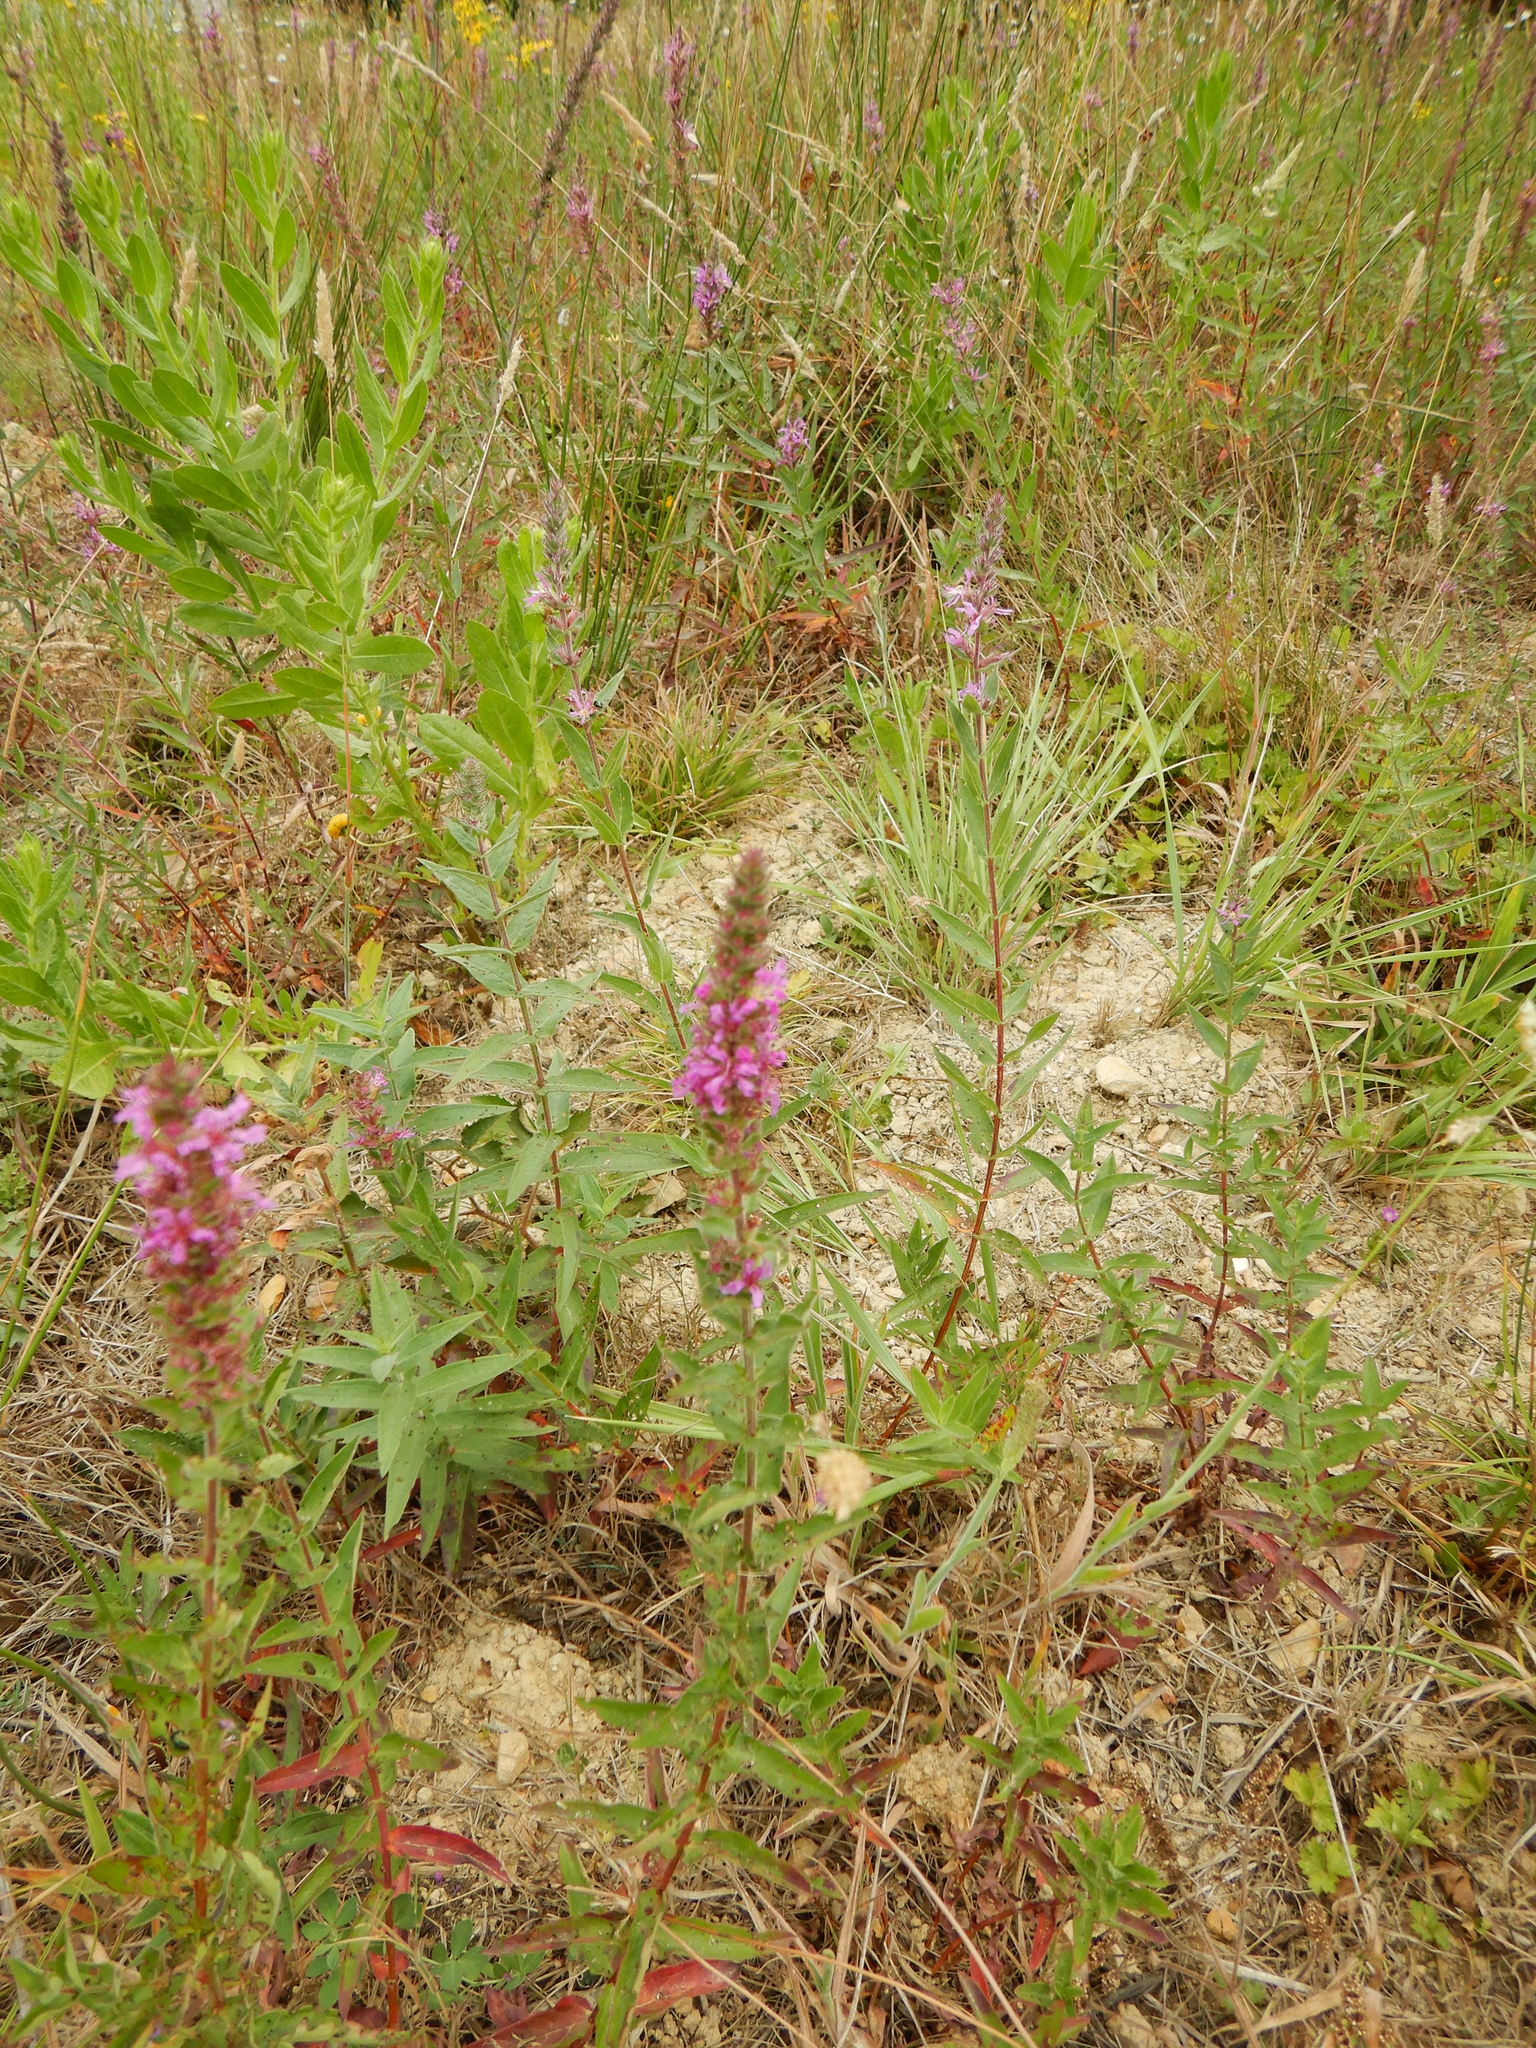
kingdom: Plantae
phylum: Tracheophyta
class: Magnoliopsida
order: Myrtales
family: Lythraceae
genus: Lythrum
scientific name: Lythrum salicaria
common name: Purple loosestrife
